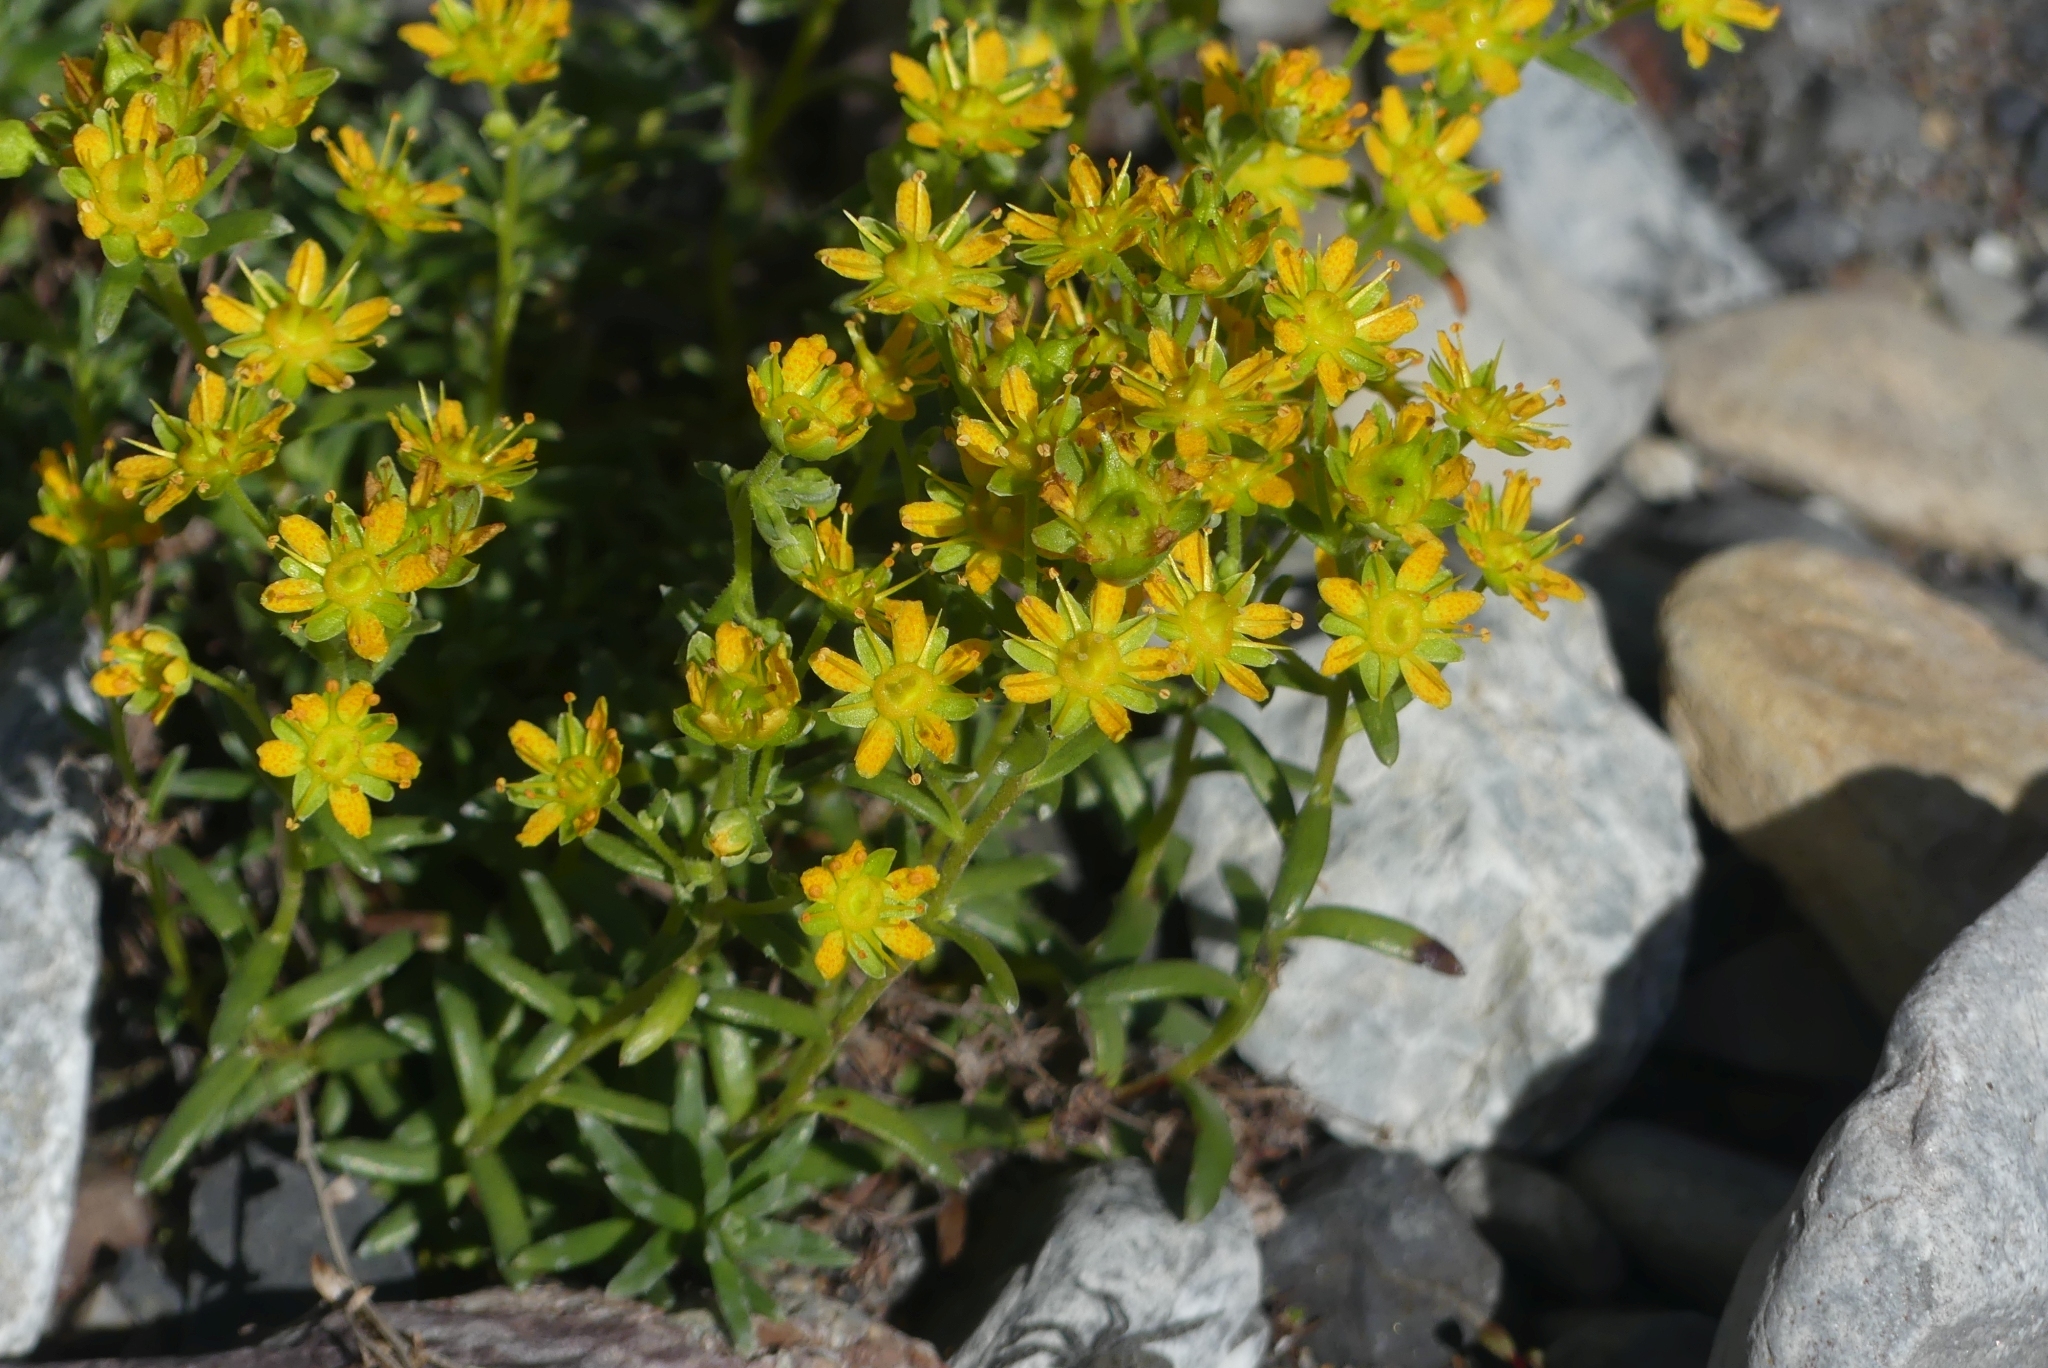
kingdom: Plantae
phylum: Tracheophyta
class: Magnoliopsida
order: Saxifragales
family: Saxifragaceae
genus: Saxifraga
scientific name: Saxifraga aizoides
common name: Yellow mountain saxifrage
